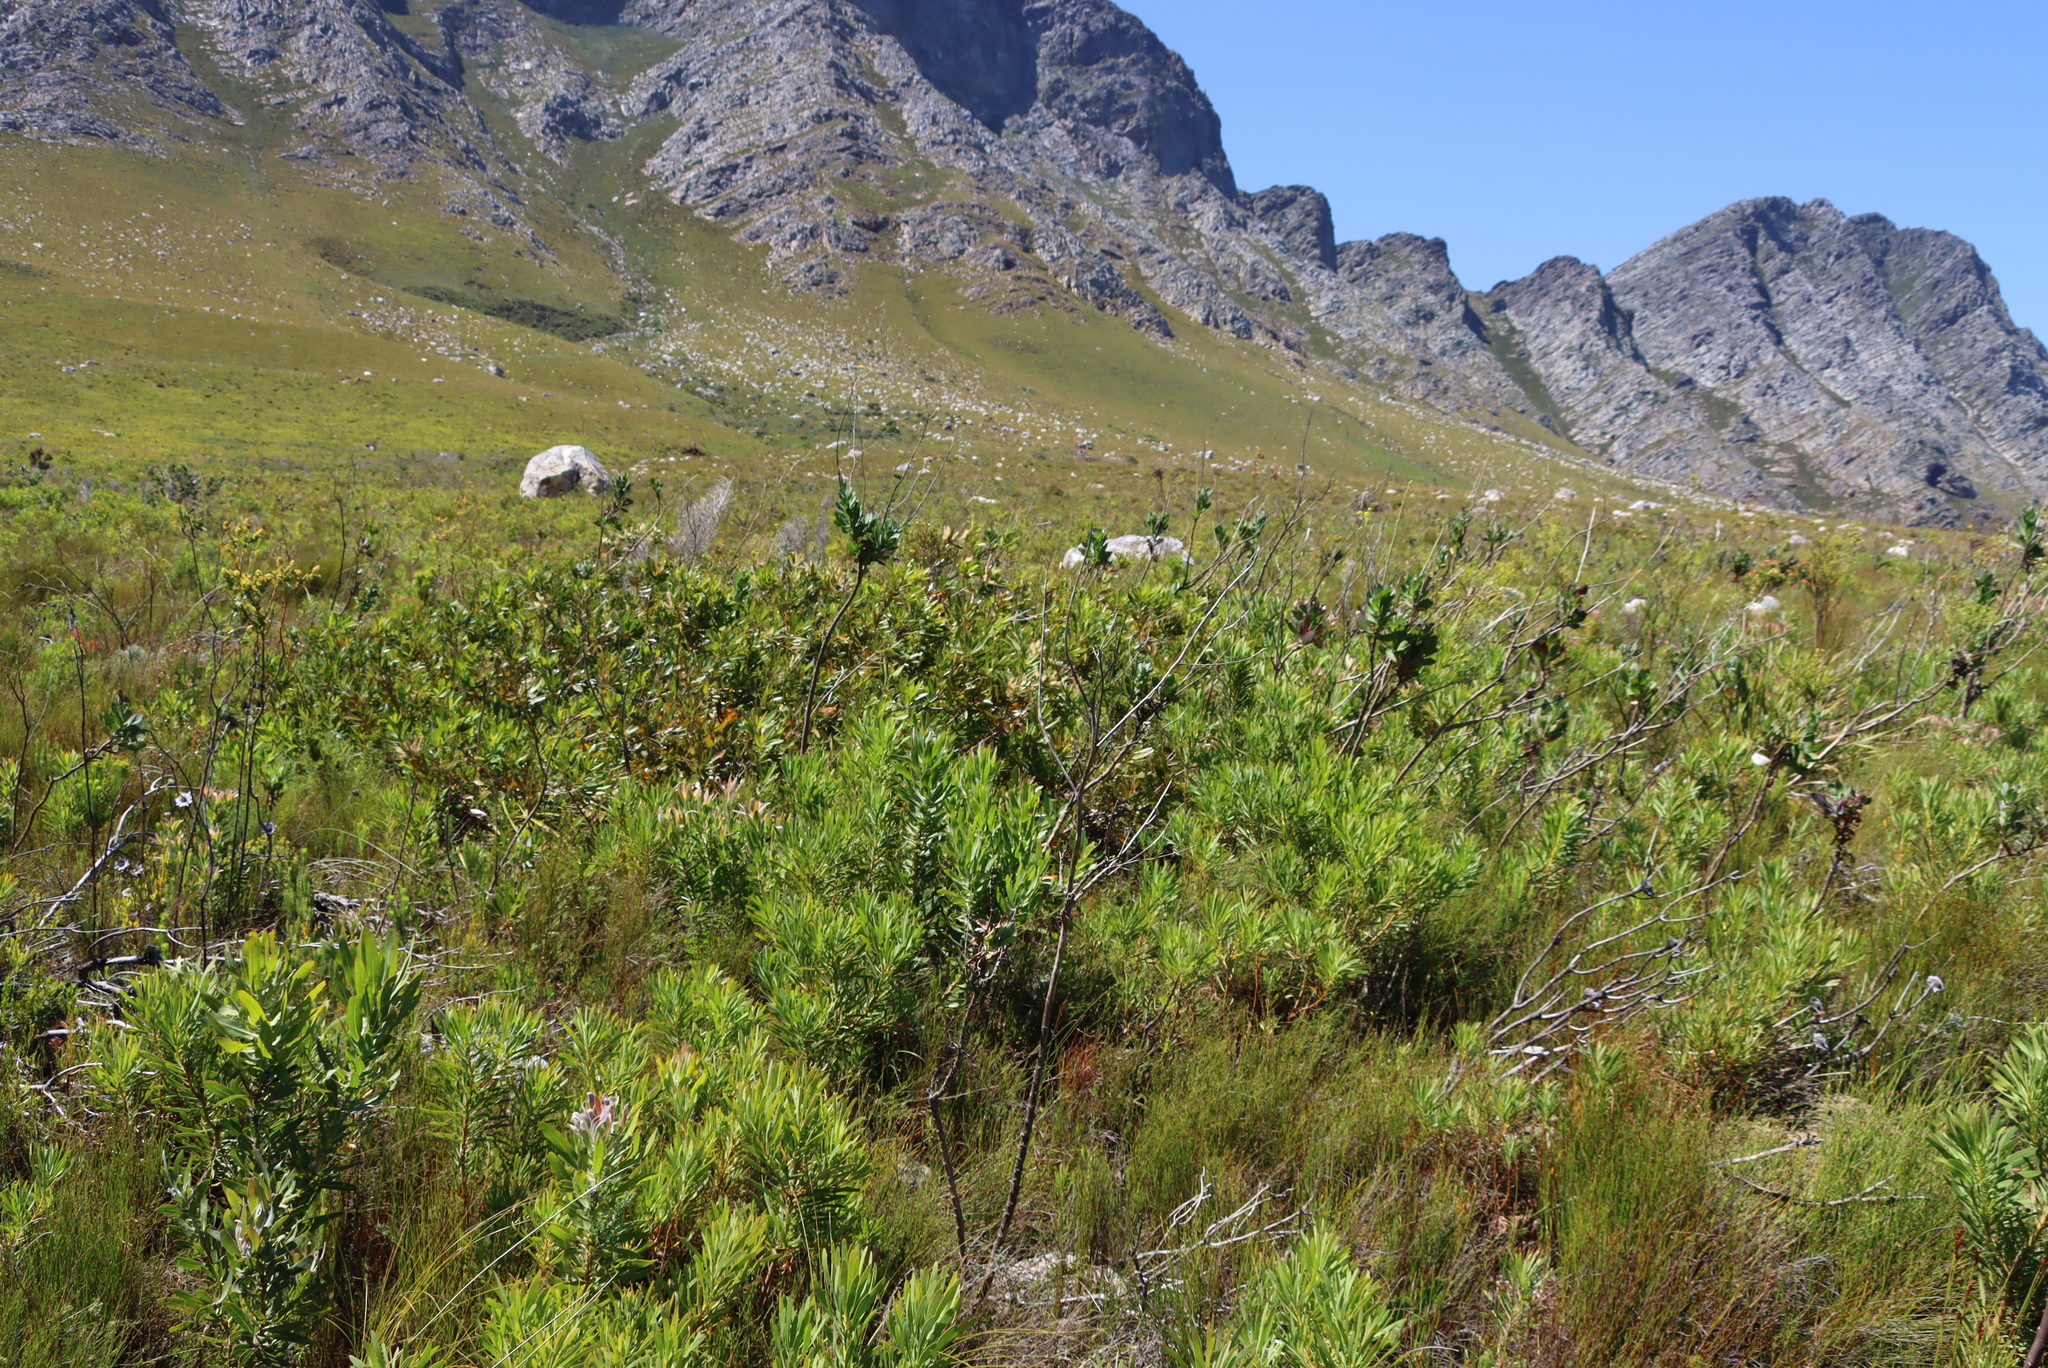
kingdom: Plantae
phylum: Tracheophyta
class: Magnoliopsida
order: Proteales
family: Proteaceae
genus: Brabejum
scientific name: Brabejum stellatifolium
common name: Wild almond
